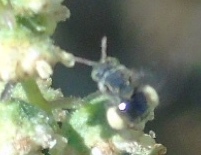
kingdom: Animalia
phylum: Arthropoda
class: Insecta
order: Hymenoptera
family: Apidae
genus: Nannotrigona
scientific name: Nannotrigona perilampoides
